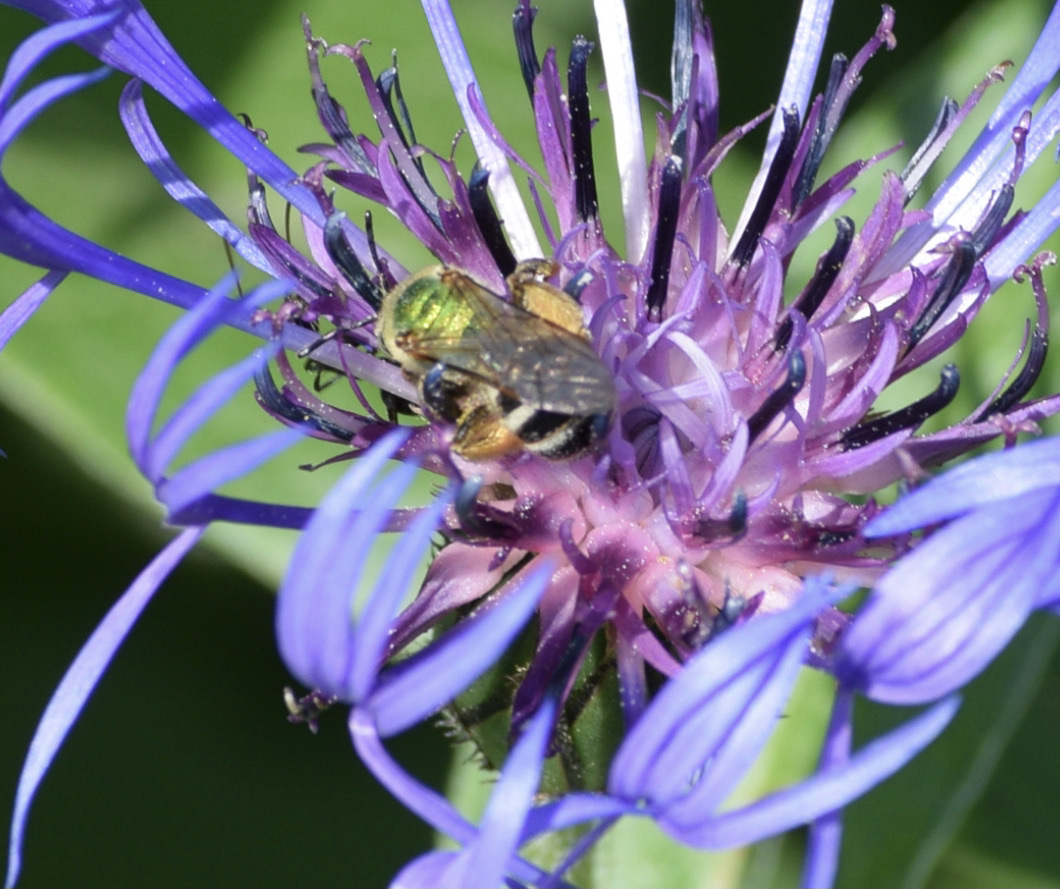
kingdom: Animalia
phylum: Arthropoda
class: Insecta
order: Hymenoptera
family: Halictidae
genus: Agapostemon
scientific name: Agapostemon virescens
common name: Bicolored striped sweat bee
